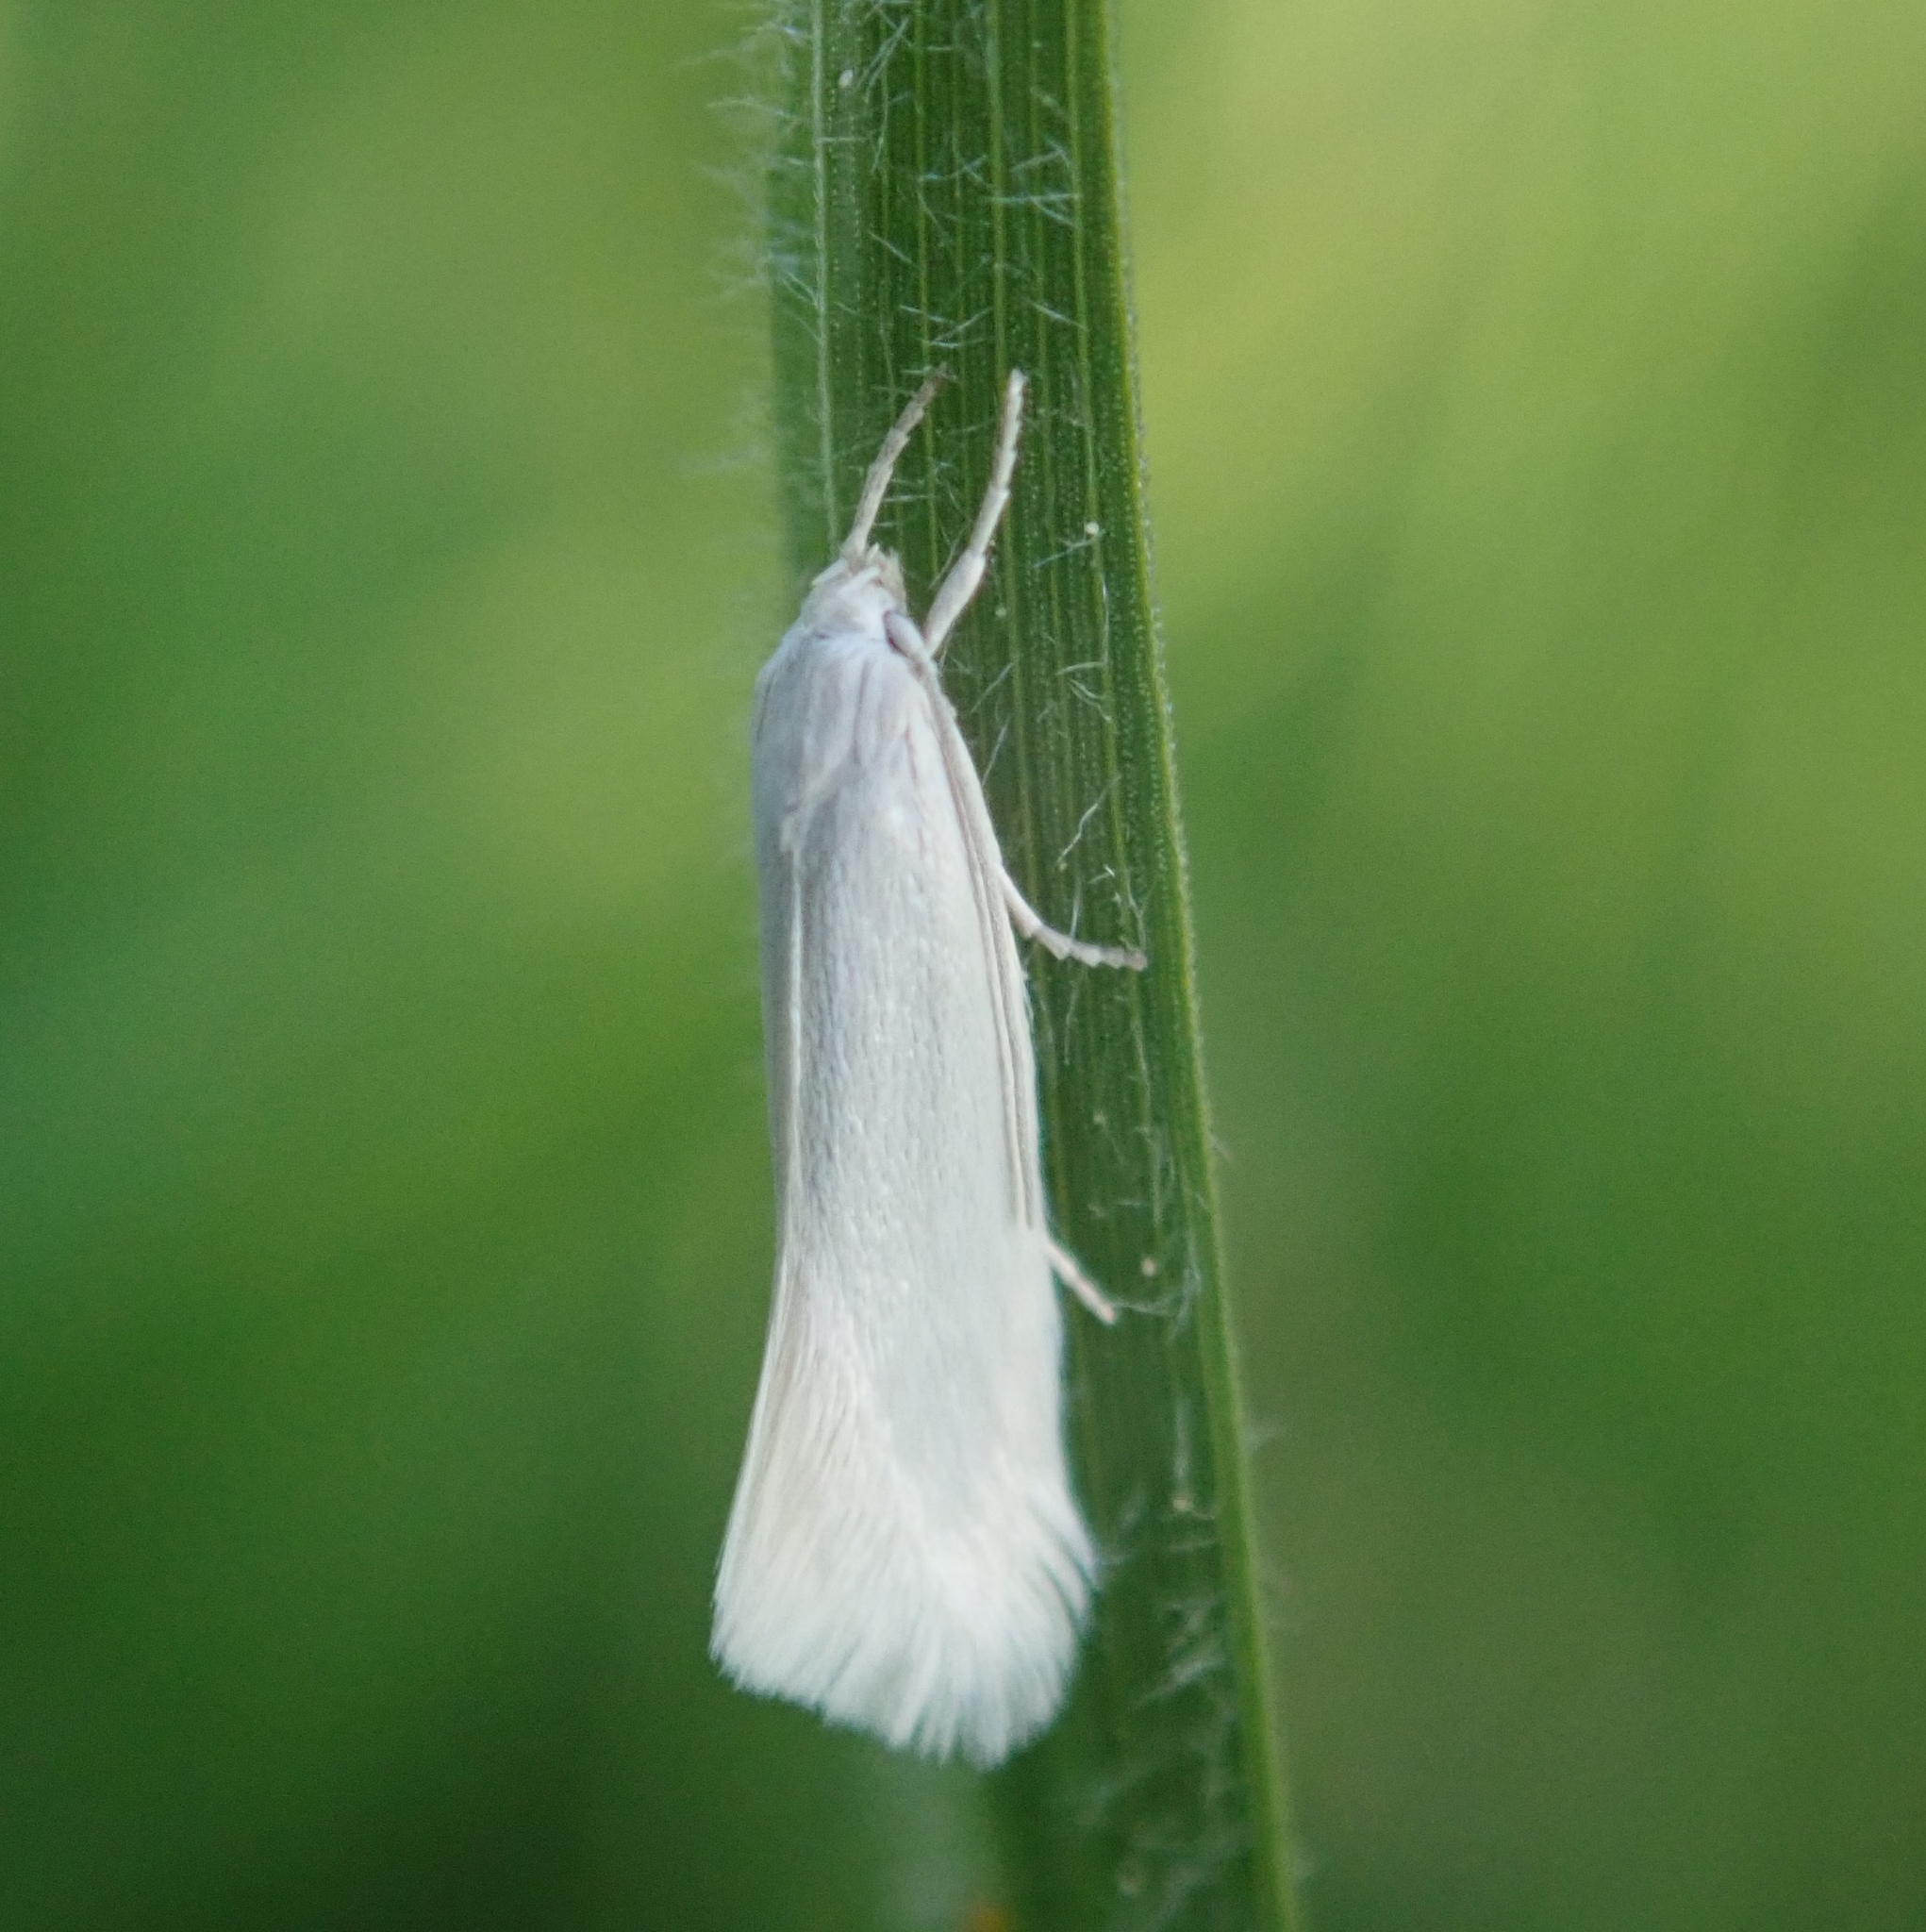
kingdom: Animalia
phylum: Arthropoda
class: Insecta
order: Lepidoptera
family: Elachistidae
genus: Elachista
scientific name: Elachista argentella
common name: Swan-feather dwarf
